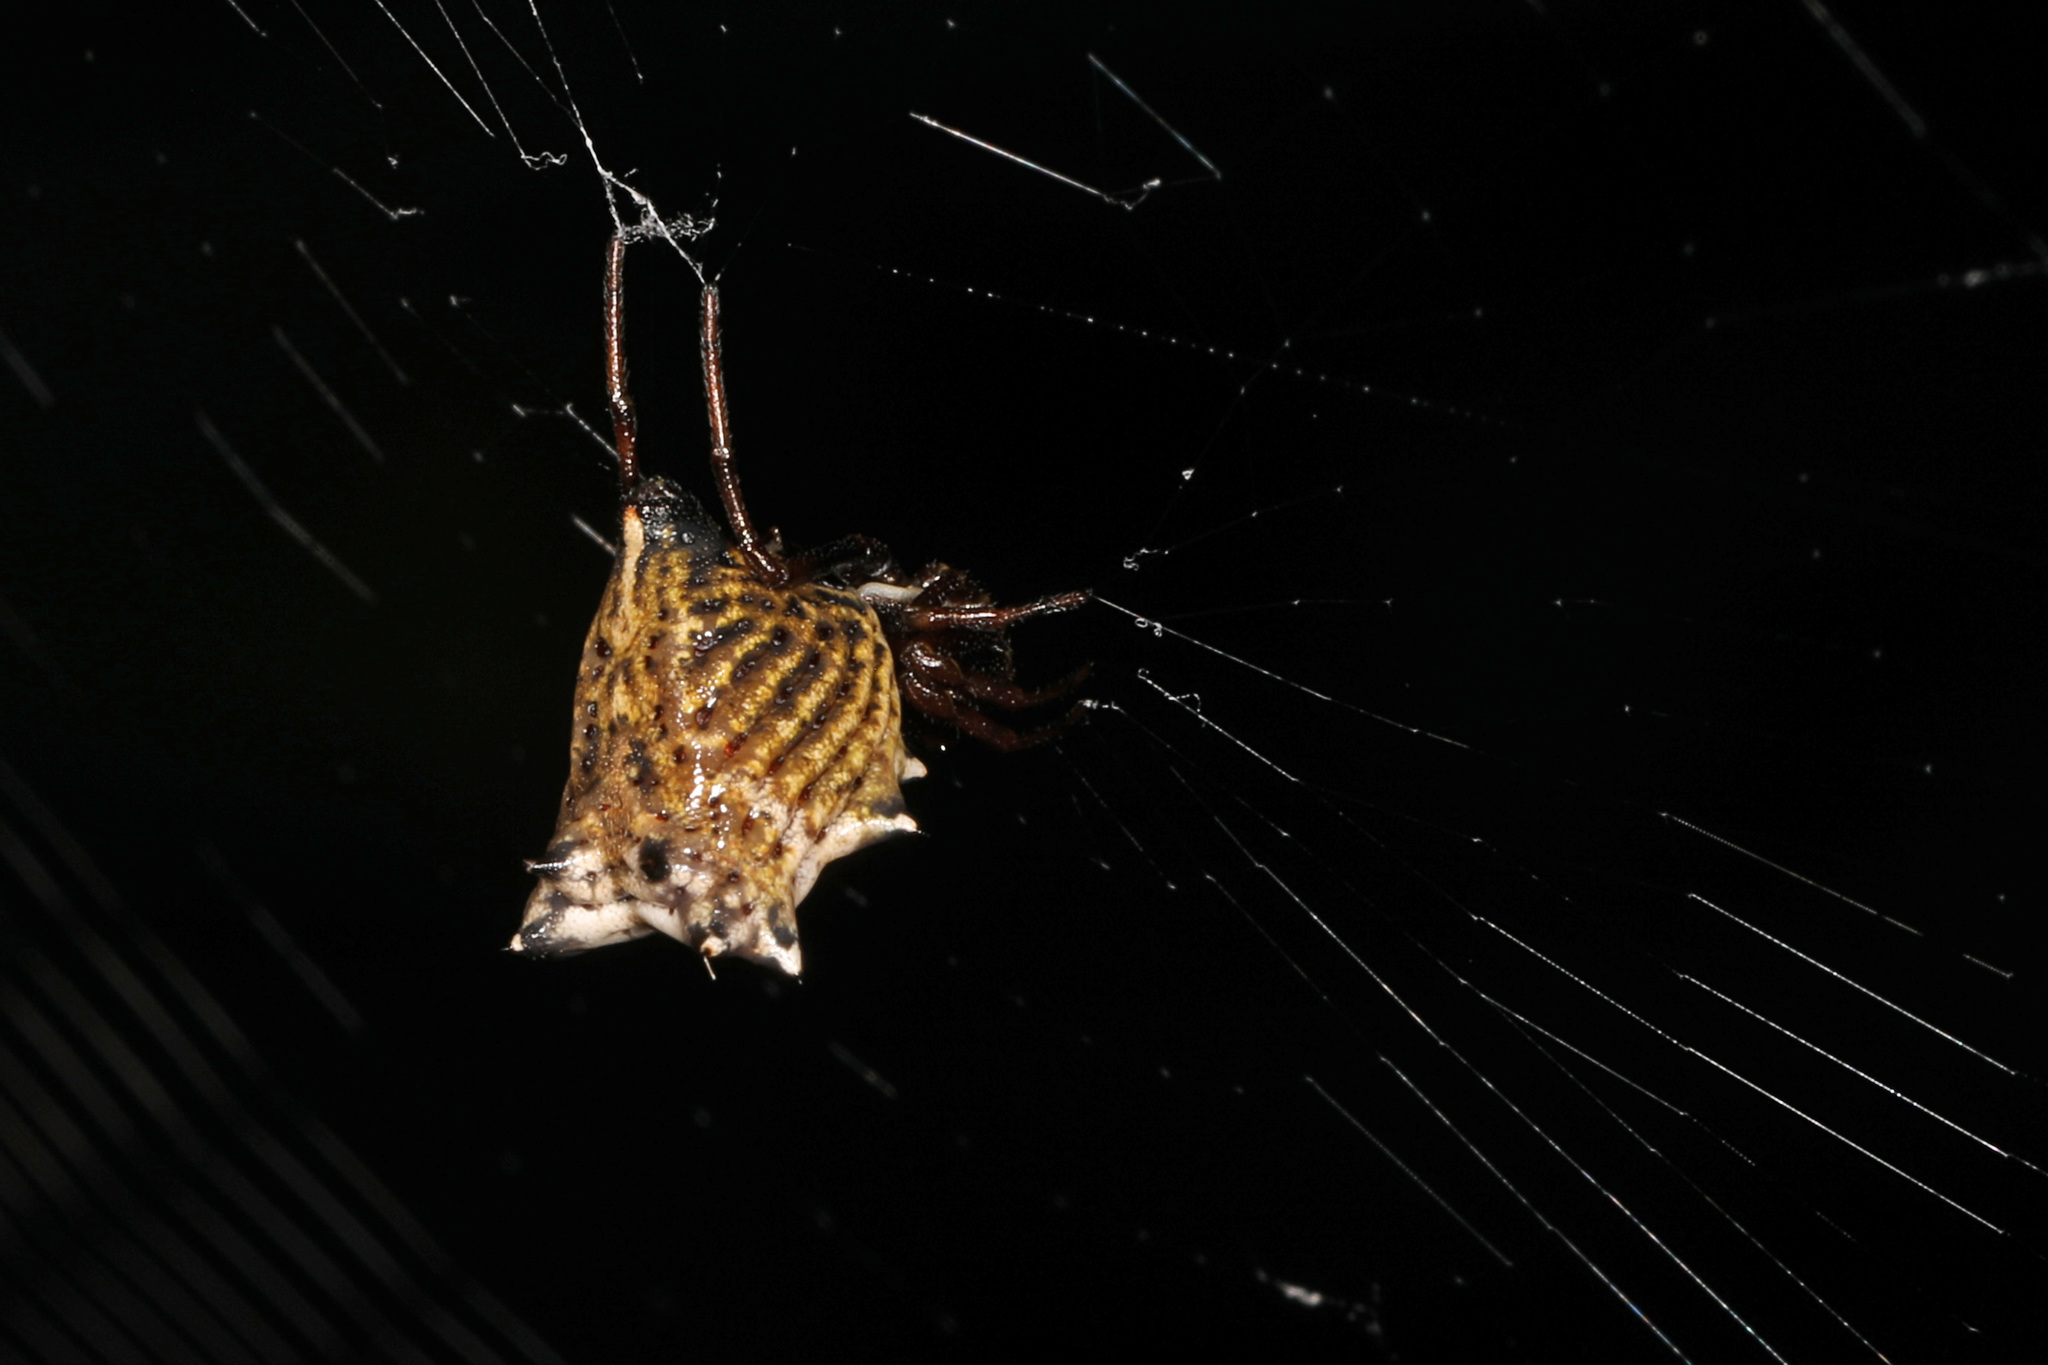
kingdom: Animalia
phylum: Arthropoda
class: Arachnida
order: Araneae
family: Araneidae
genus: Micrathena
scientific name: Micrathena gracilis
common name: Orb weavers
